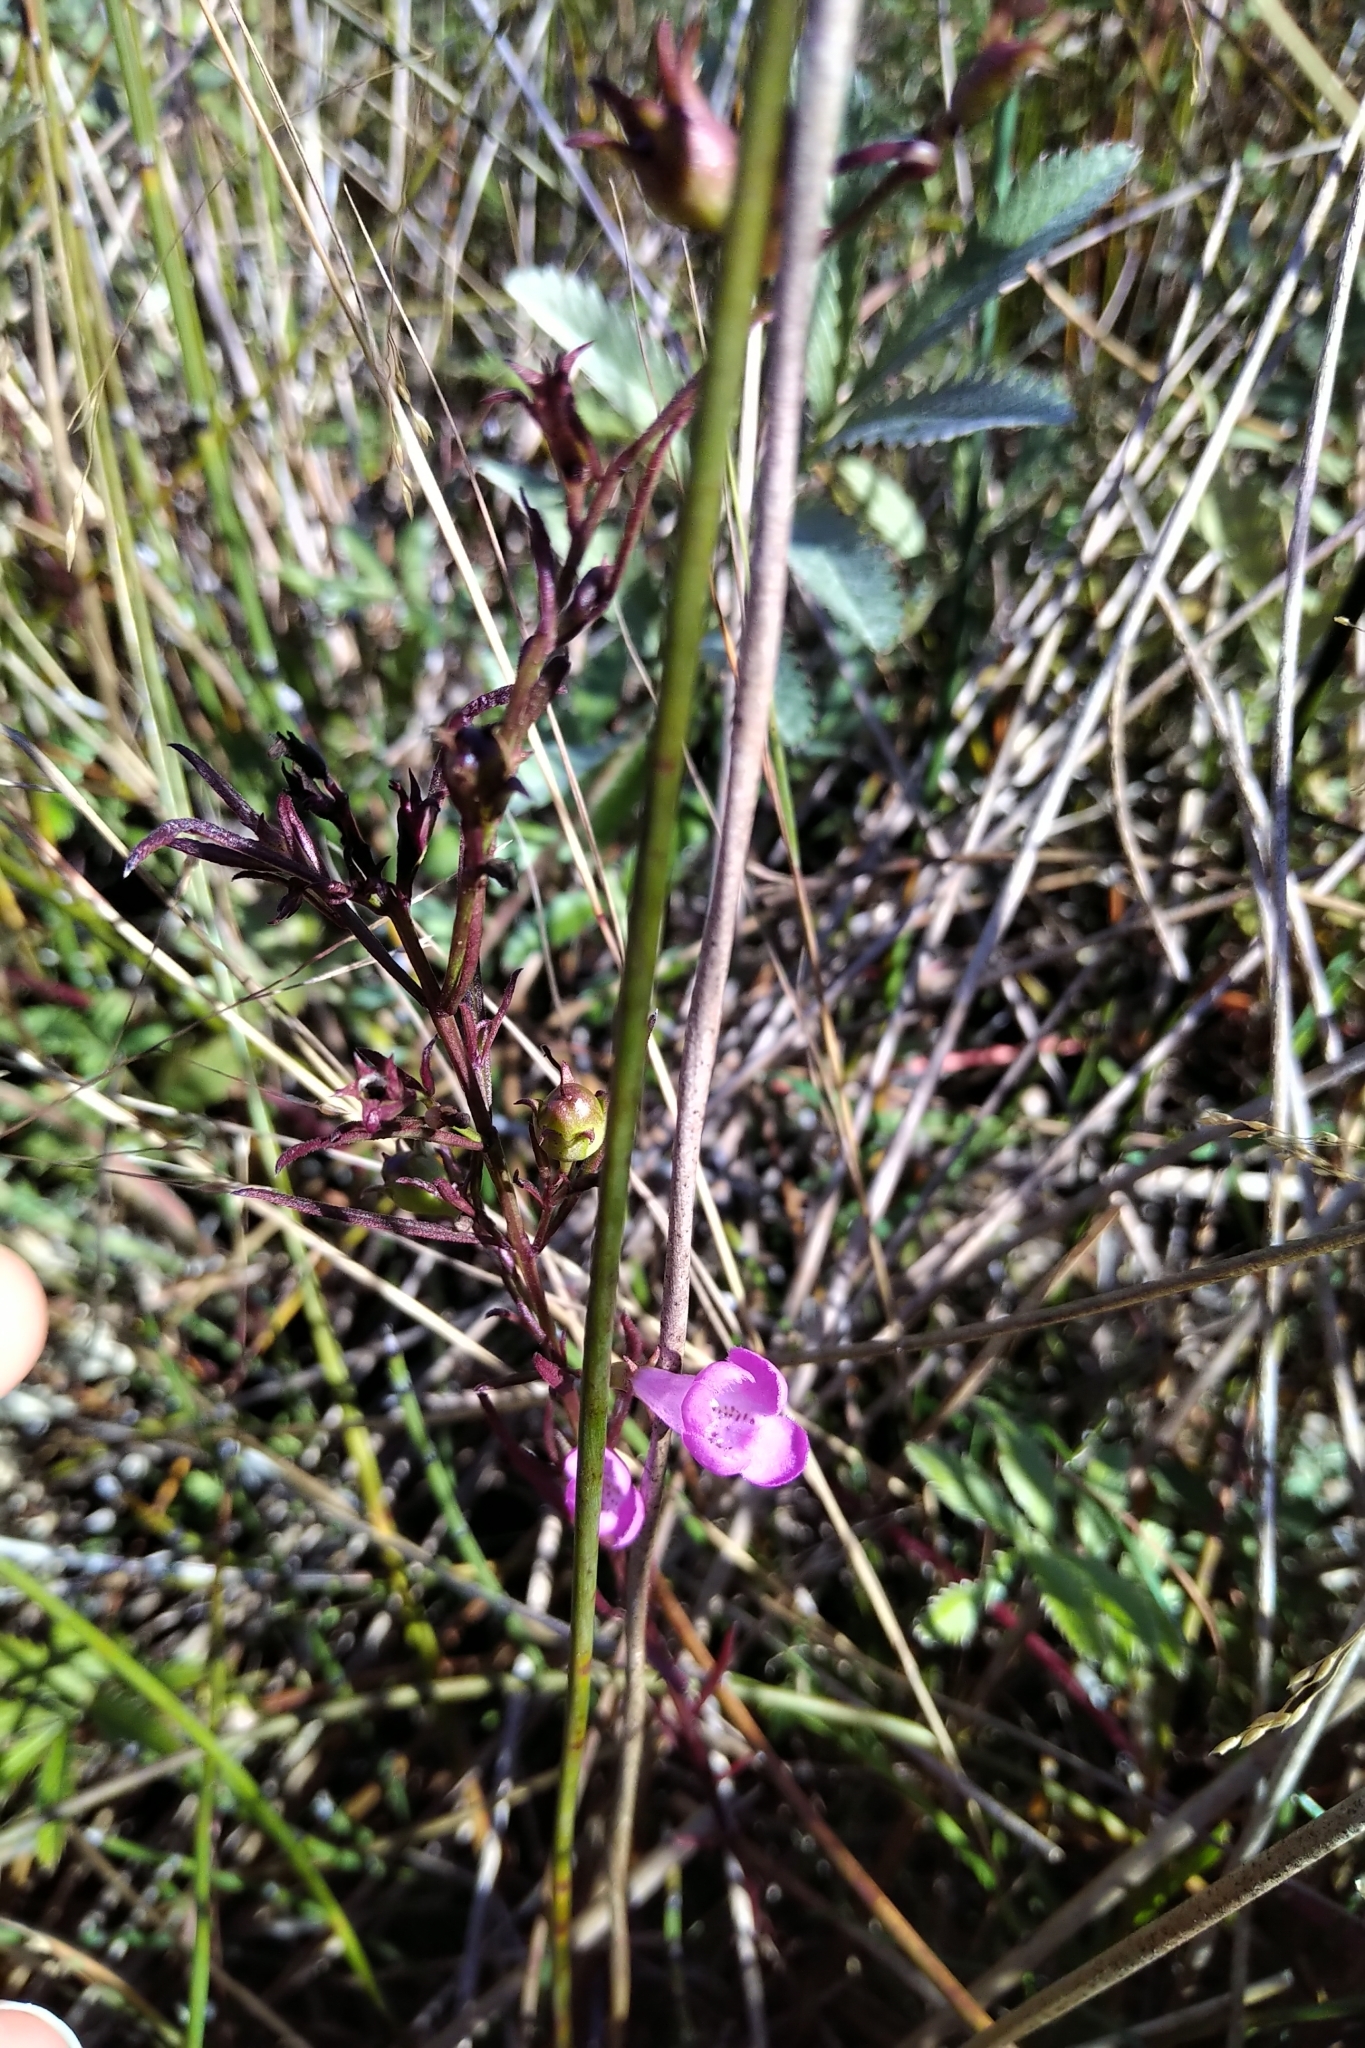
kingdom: Plantae
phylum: Tracheophyta
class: Magnoliopsida
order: Lamiales
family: Orobanchaceae
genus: Agalinis
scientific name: Agalinis purpurea
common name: Purple false foxglove
